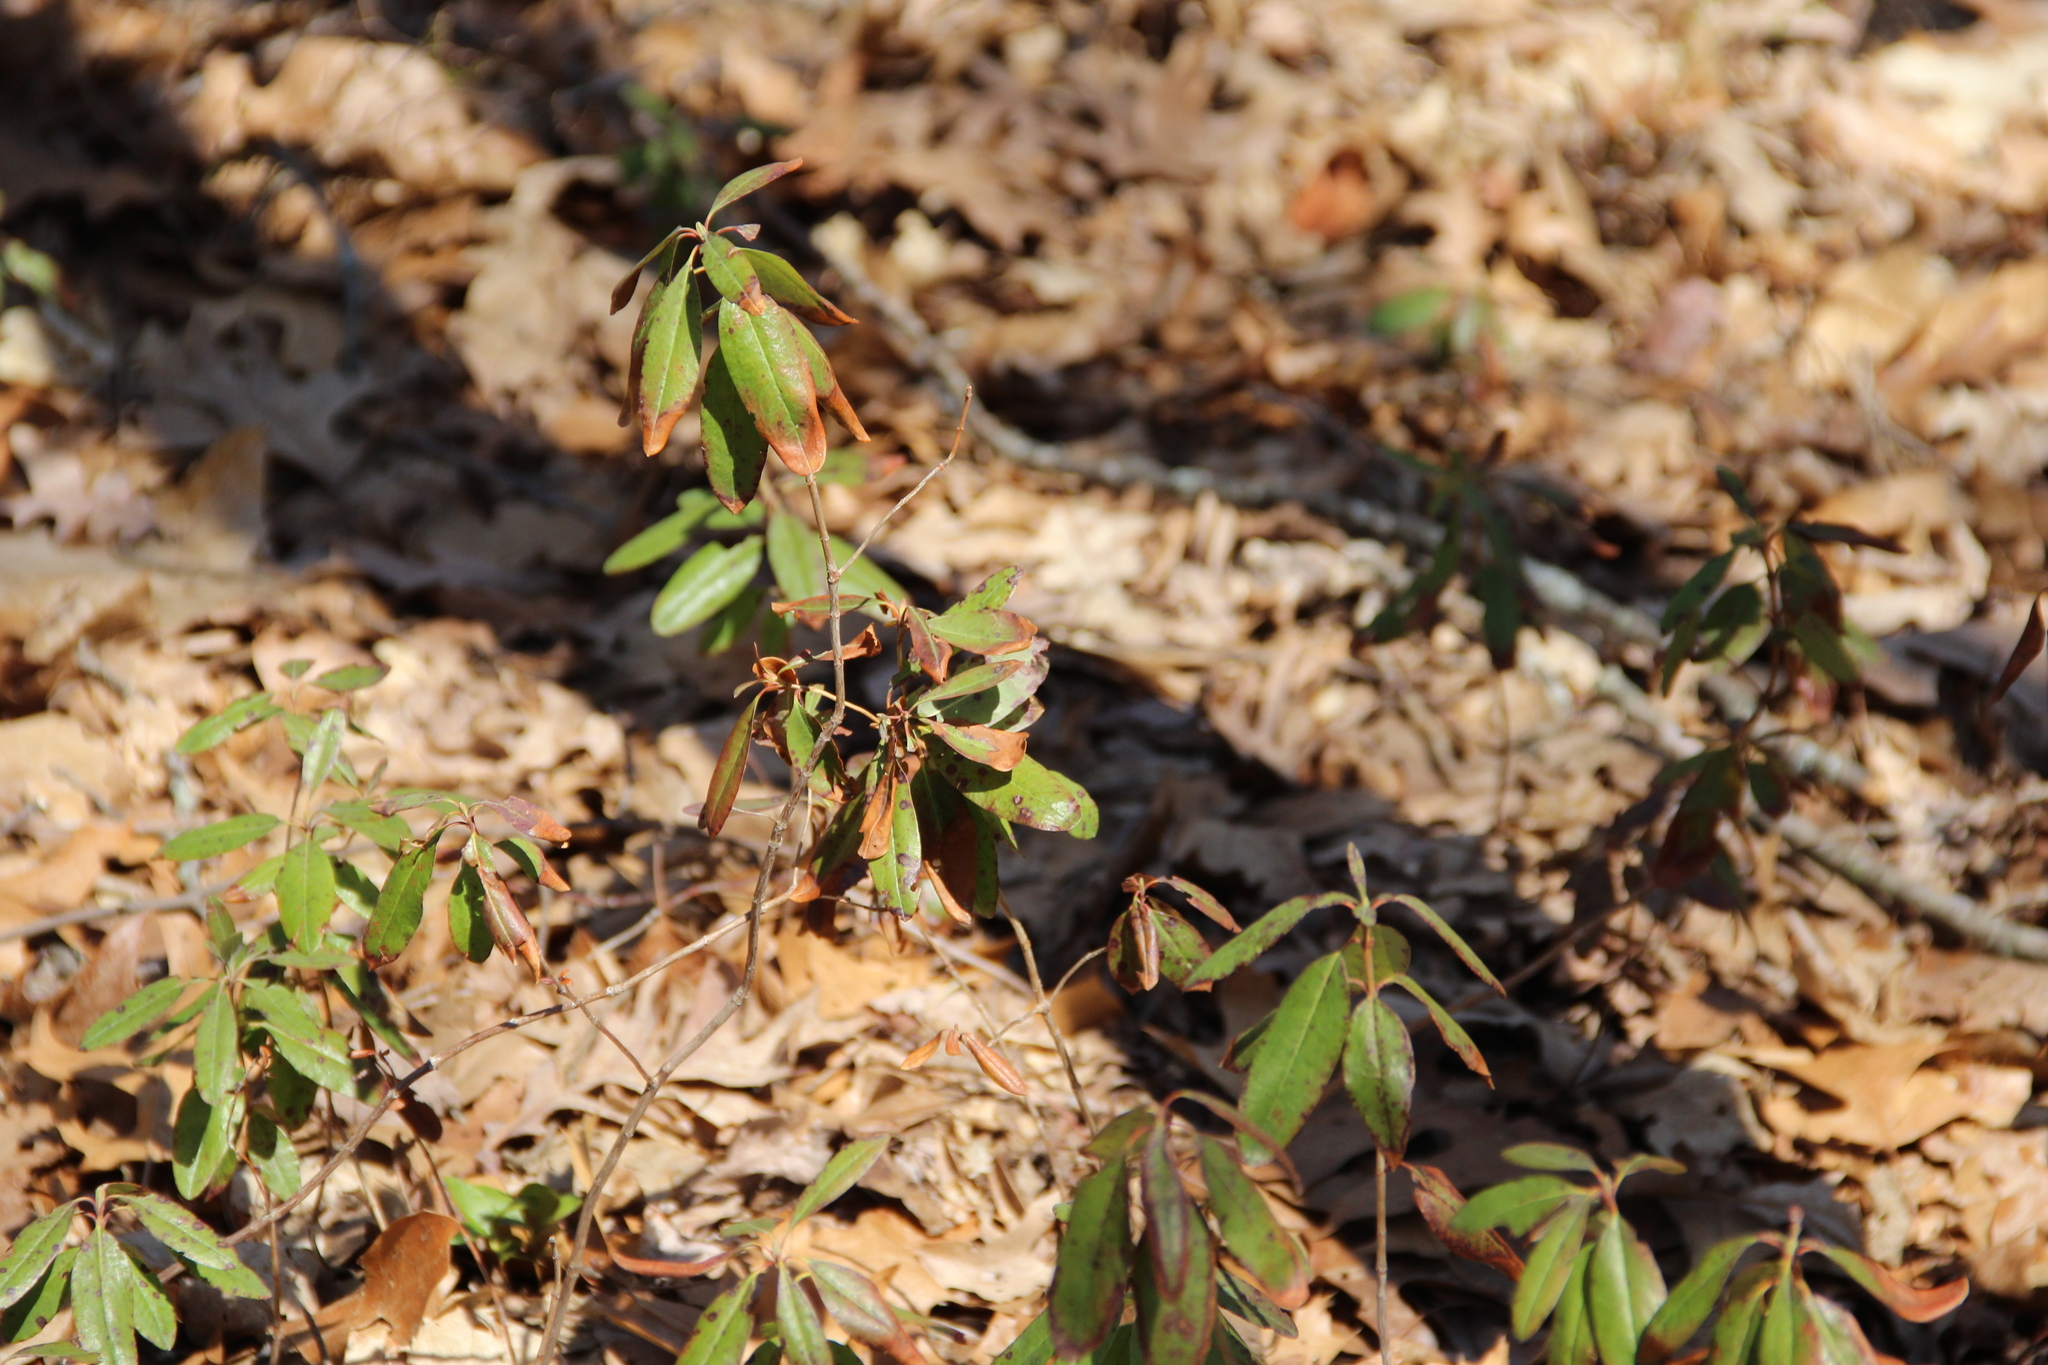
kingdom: Plantae
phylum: Tracheophyta
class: Magnoliopsida
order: Ericales
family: Ericaceae
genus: Kalmia
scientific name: Kalmia angustifolia
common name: Sheep-laurel
